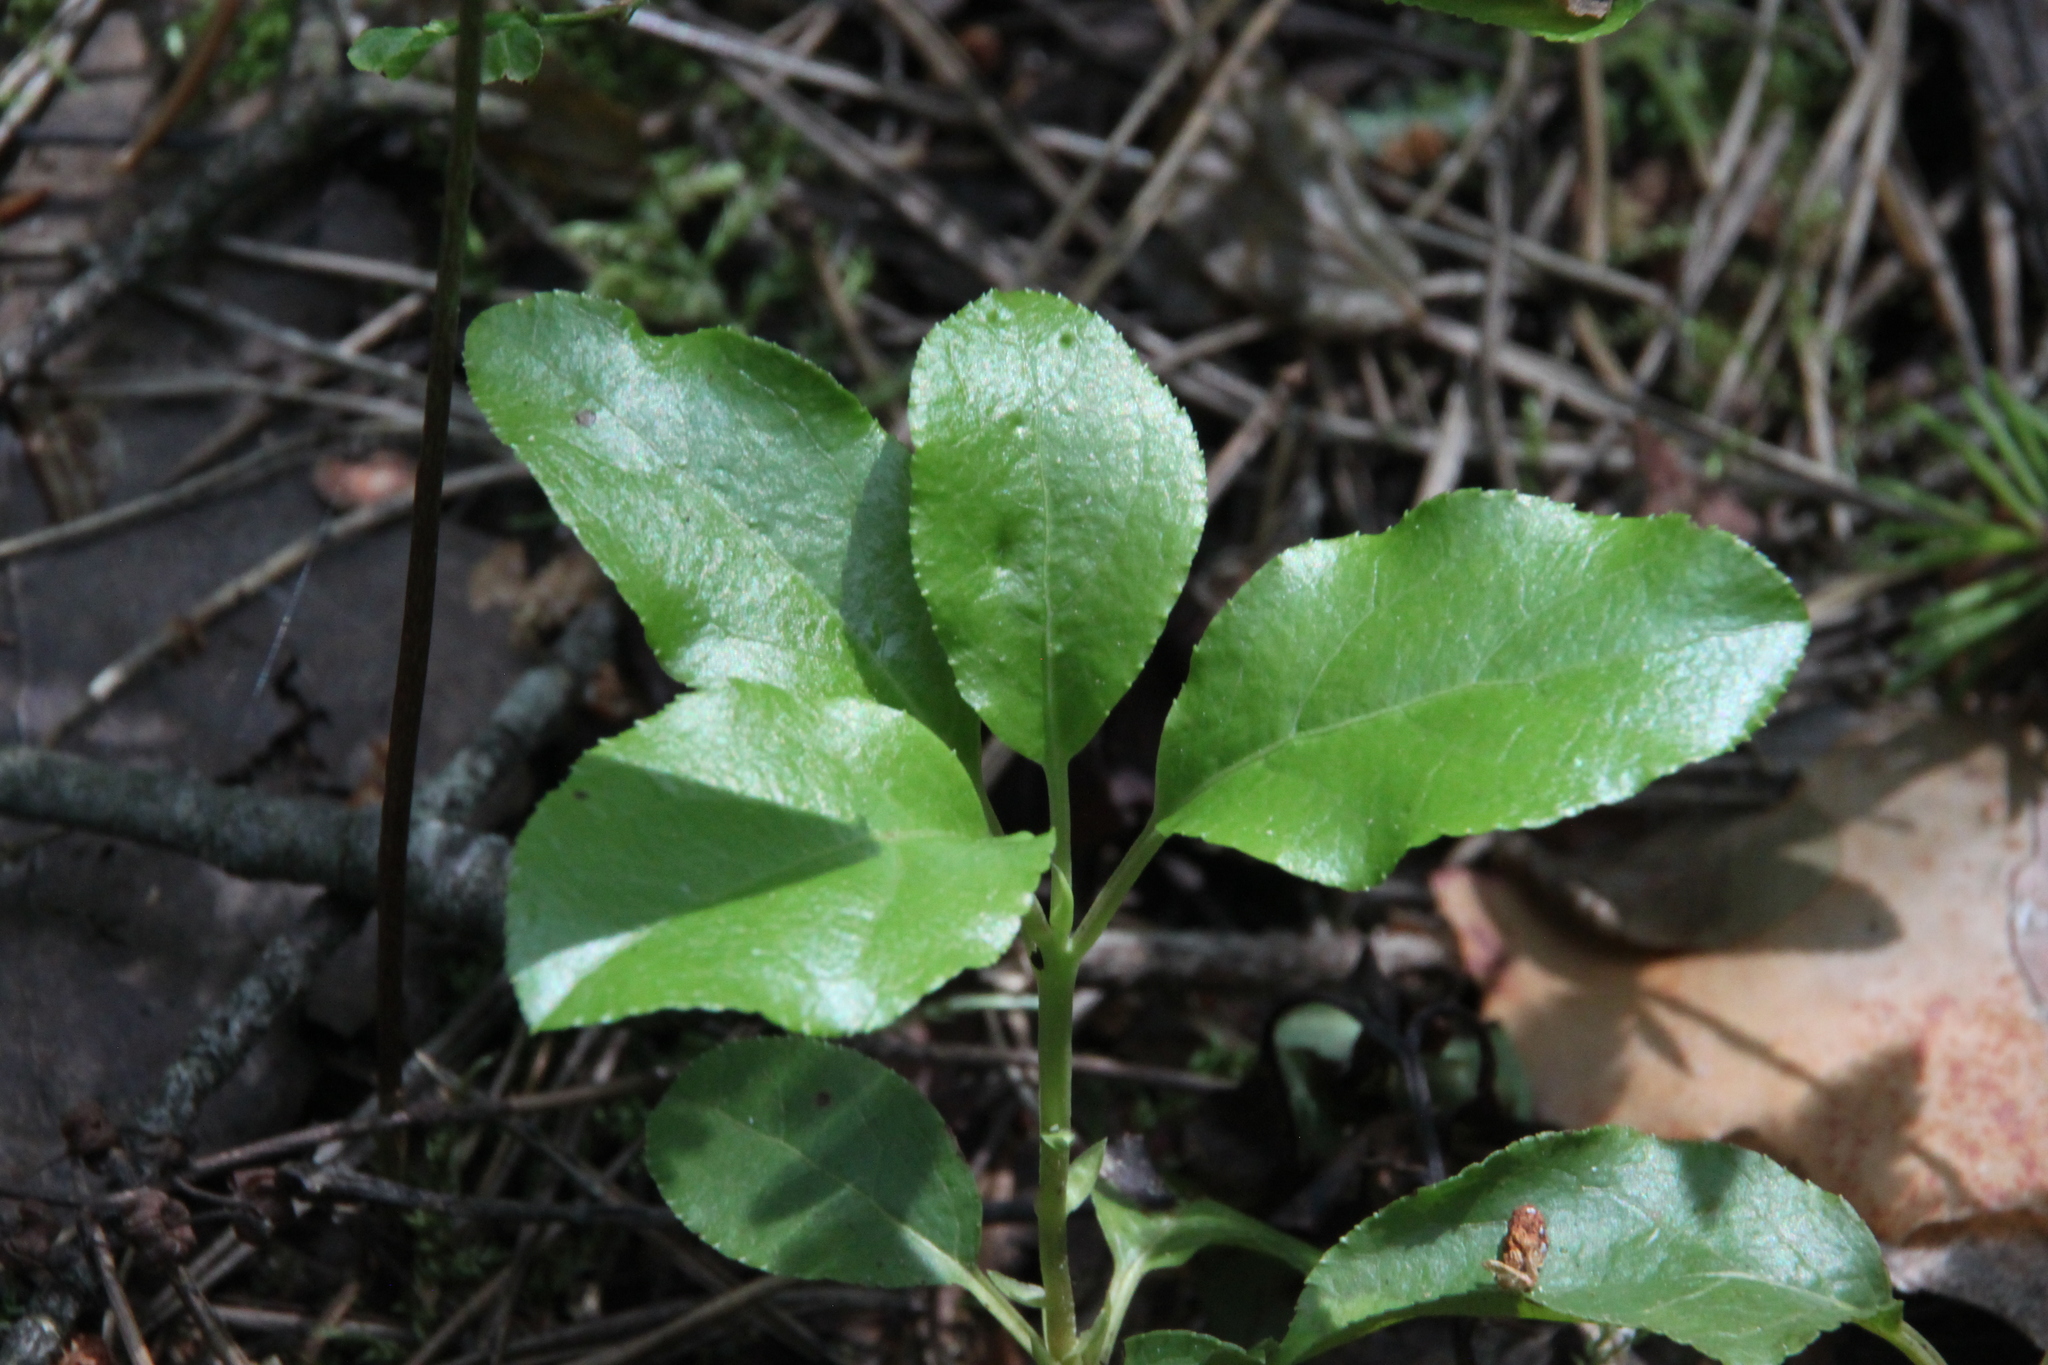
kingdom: Plantae
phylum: Tracheophyta
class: Magnoliopsida
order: Ericales
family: Ericaceae
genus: Orthilia
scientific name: Orthilia secunda
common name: One-sided orthilia
